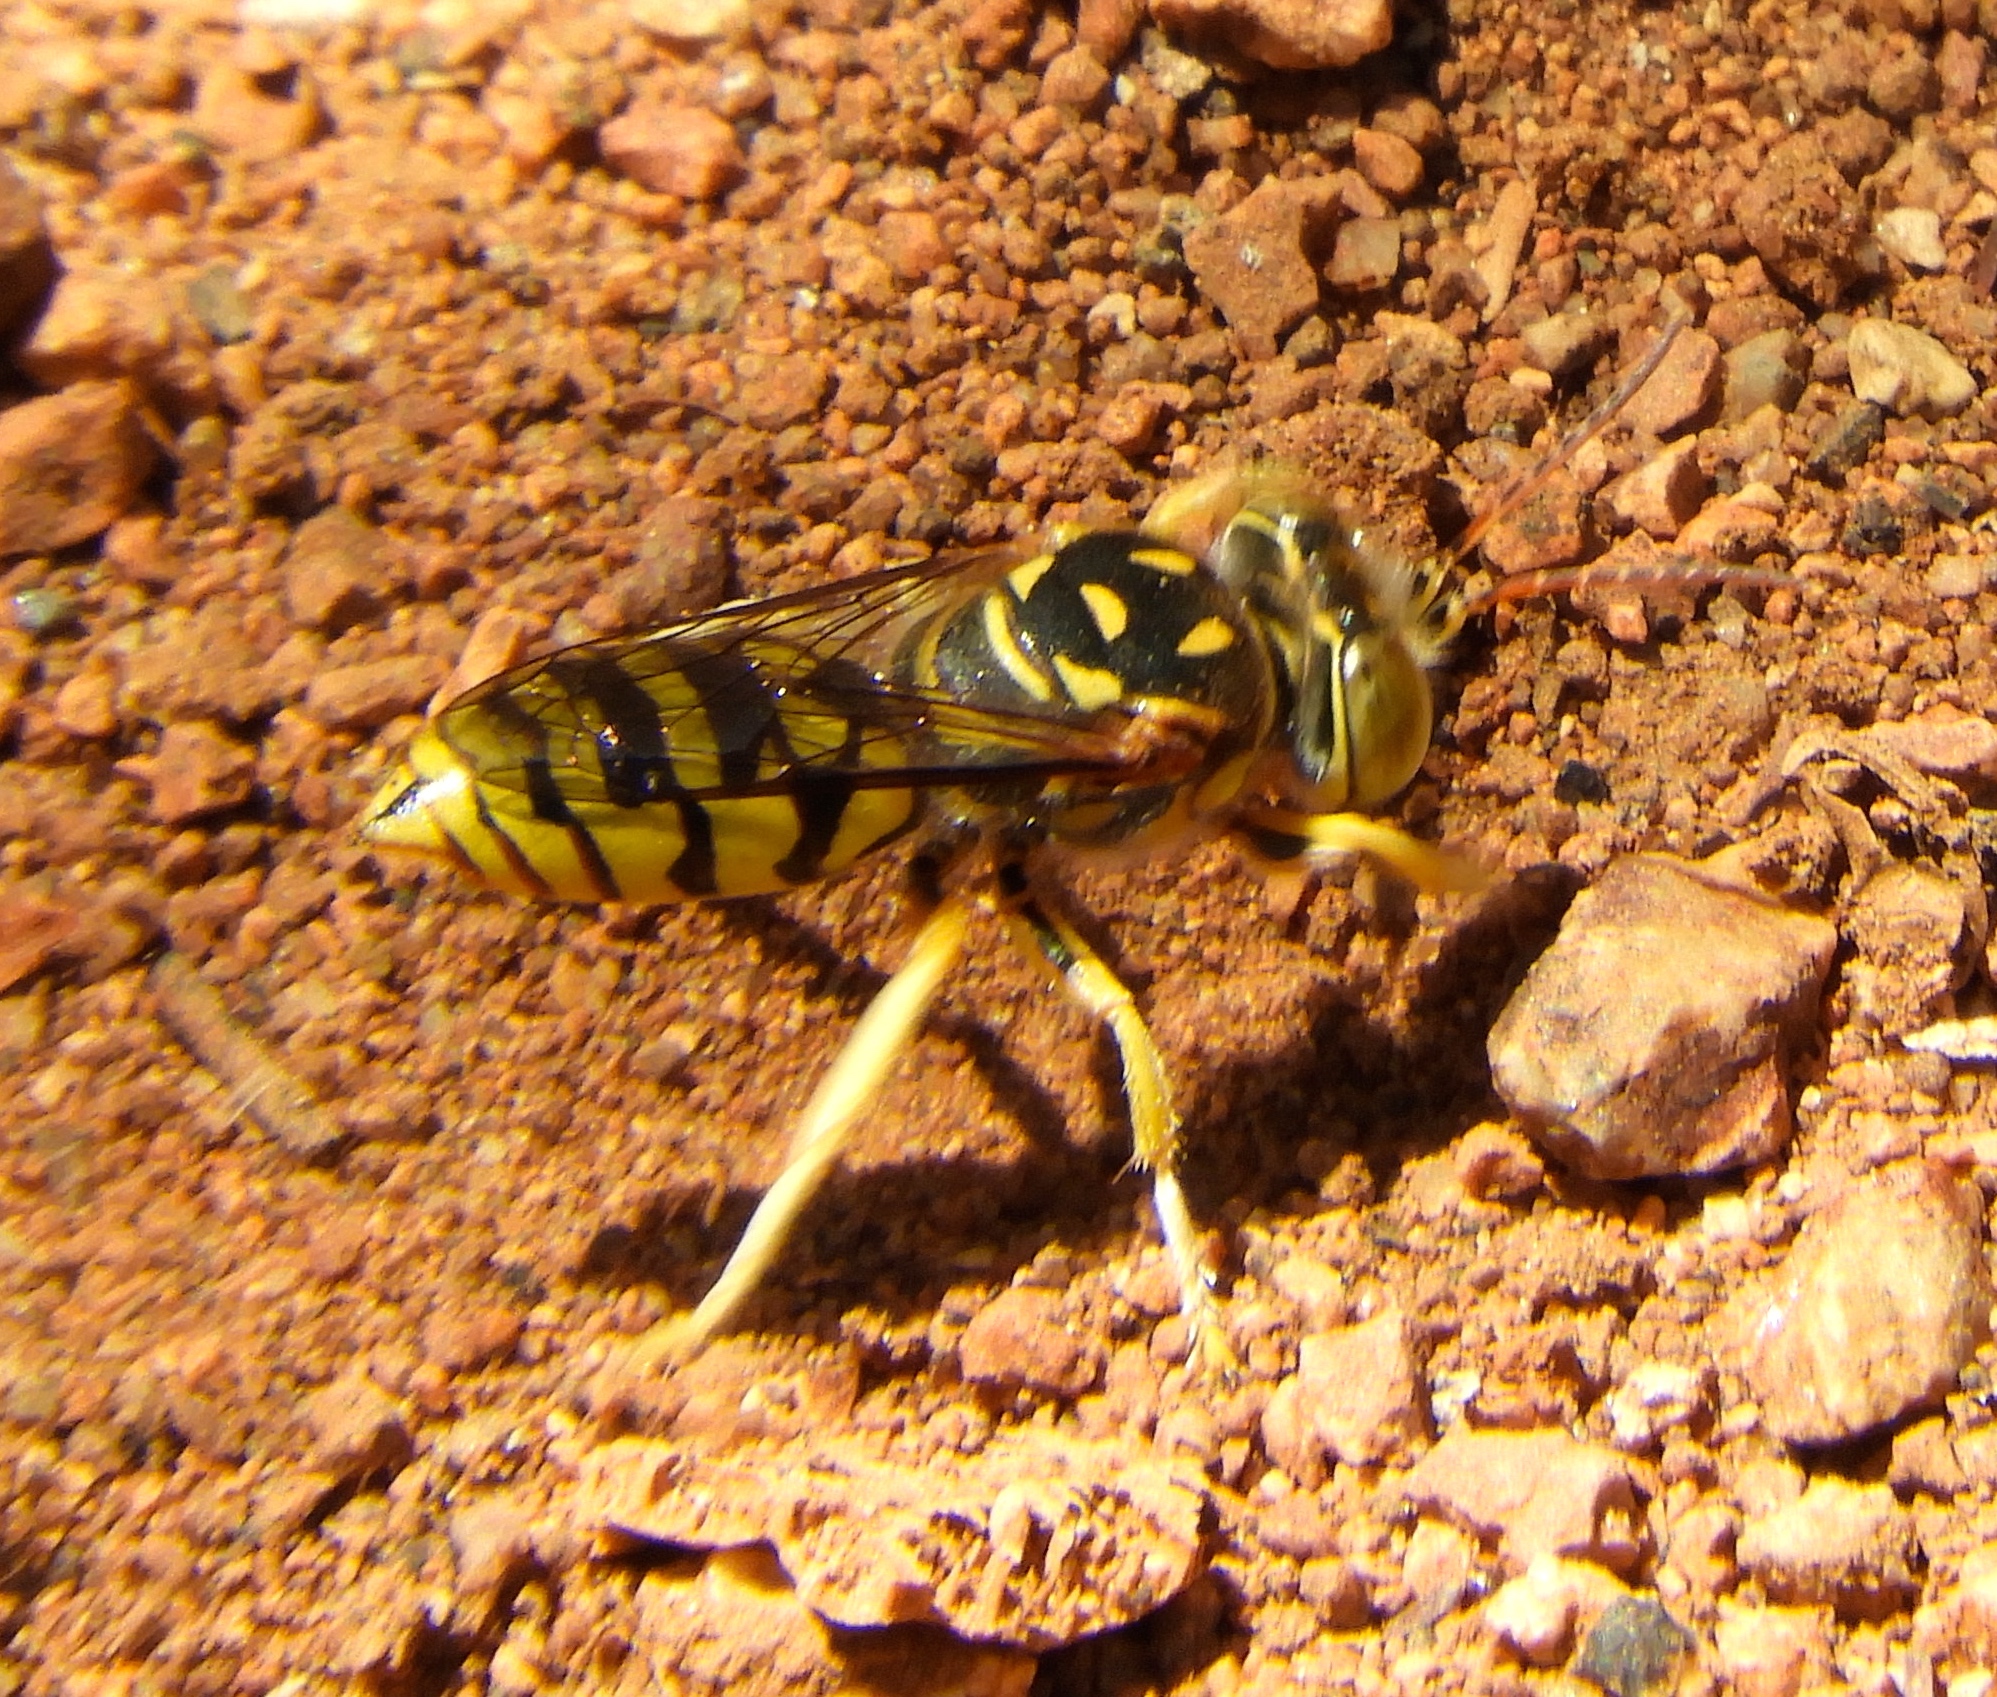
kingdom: Animalia
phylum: Arthropoda
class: Insecta
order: Hymenoptera
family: Crabronidae
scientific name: Crabronidae
